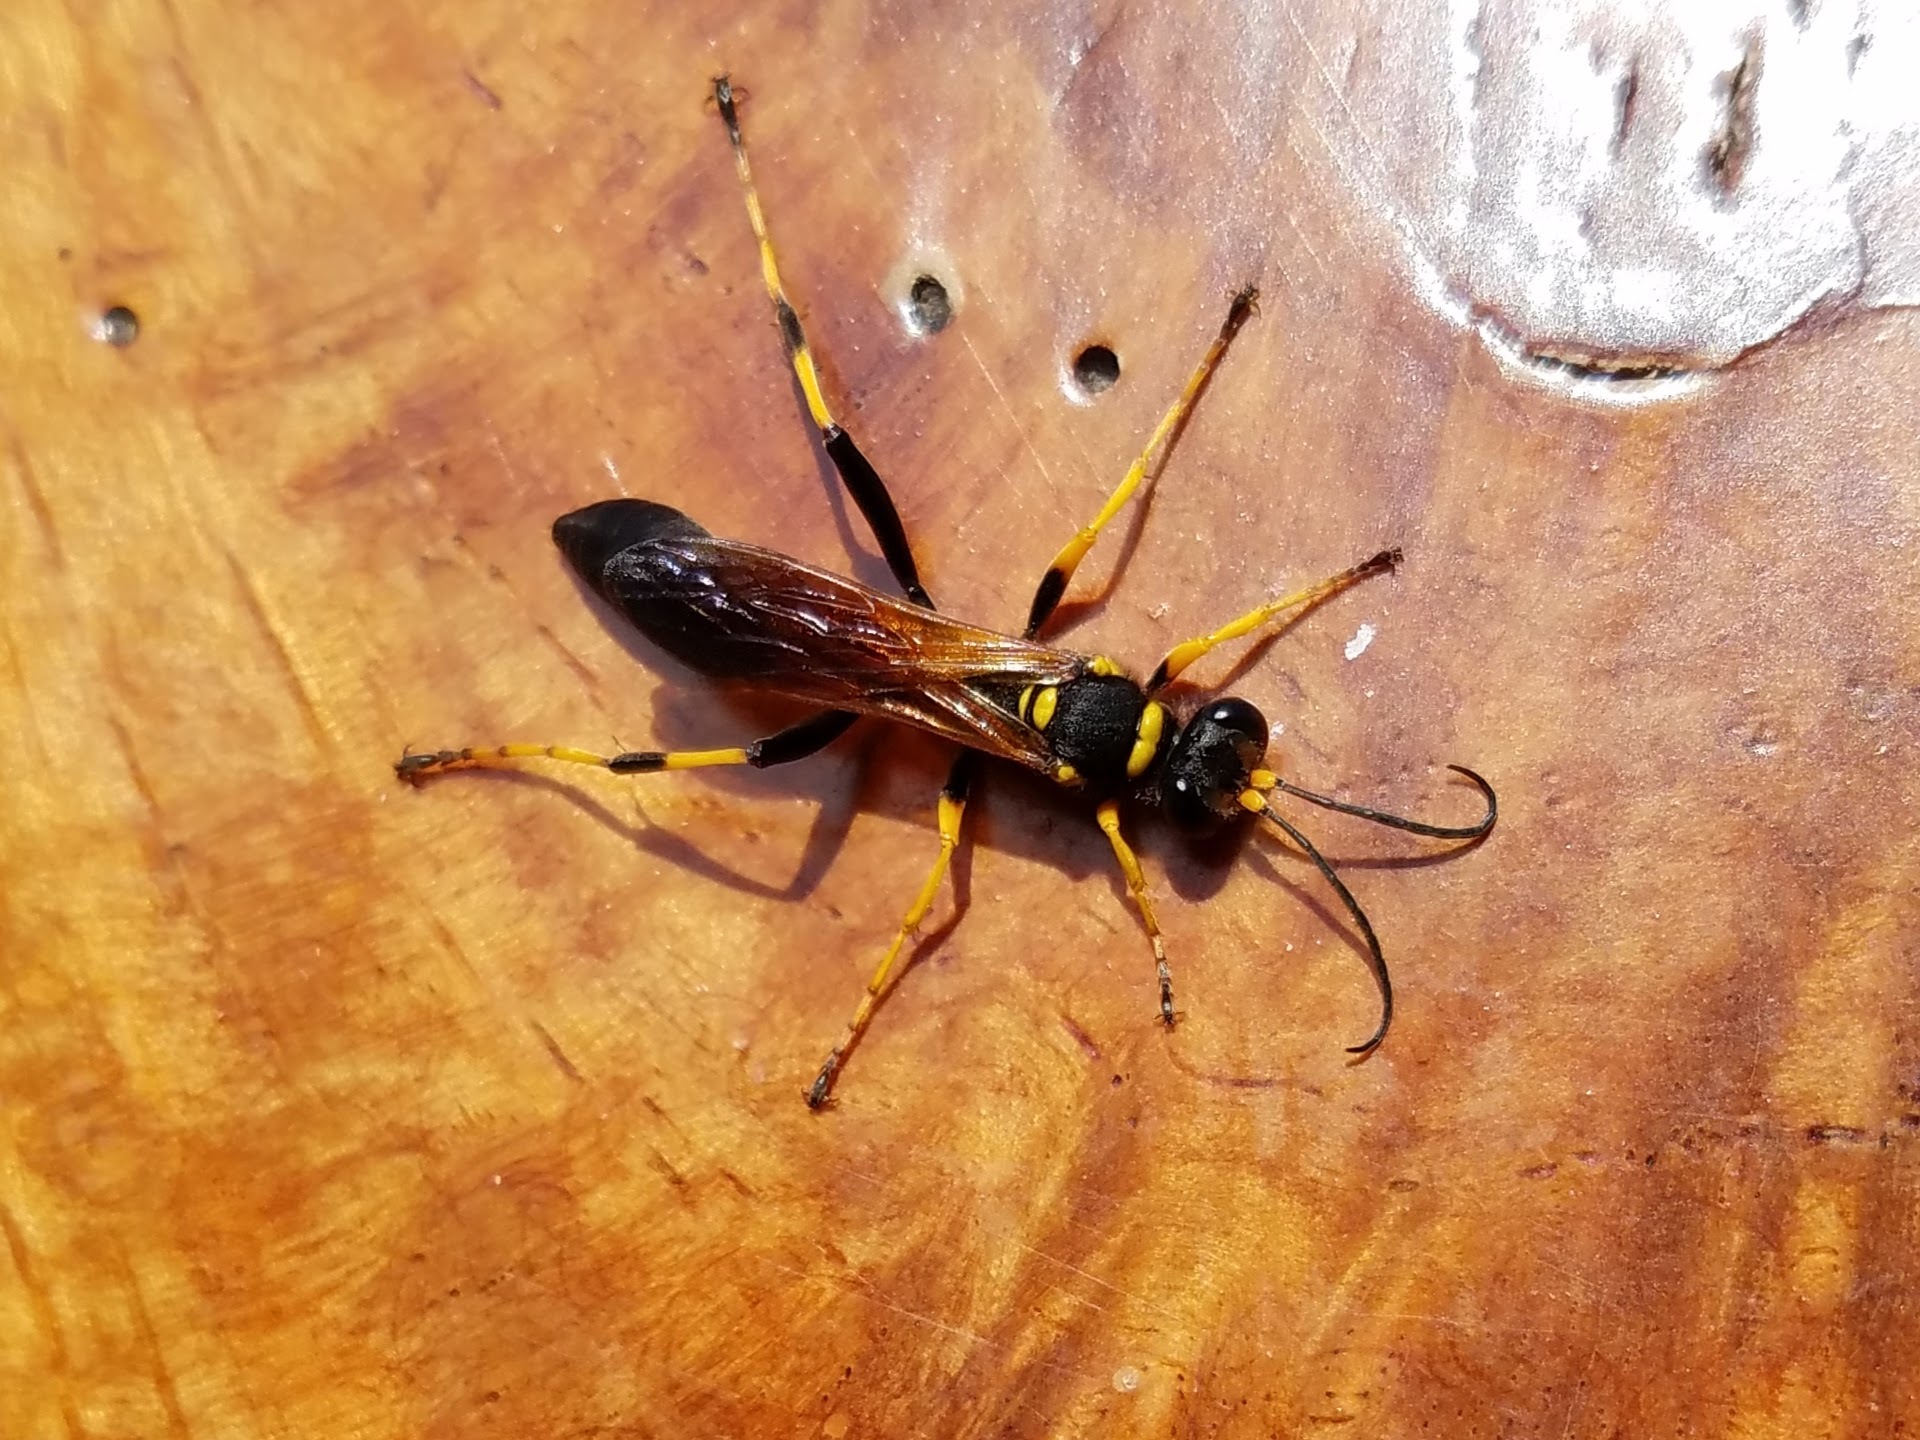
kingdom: Animalia
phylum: Arthropoda
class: Insecta
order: Hymenoptera
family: Sphecidae
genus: Sceliphron
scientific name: Sceliphron caementarium
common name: Mud dauber
